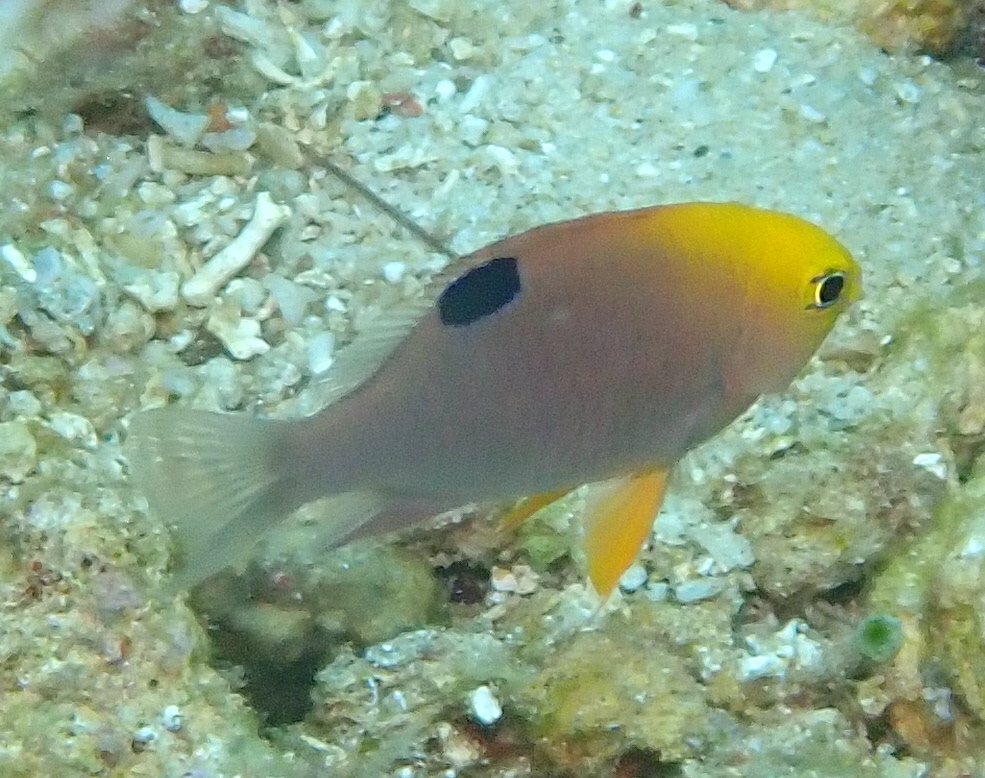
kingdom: Animalia
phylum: Chordata
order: Perciformes
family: Pomacentridae
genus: Chrysiptera
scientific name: Chrysiptera talboti
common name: Talbot's demoiselle
